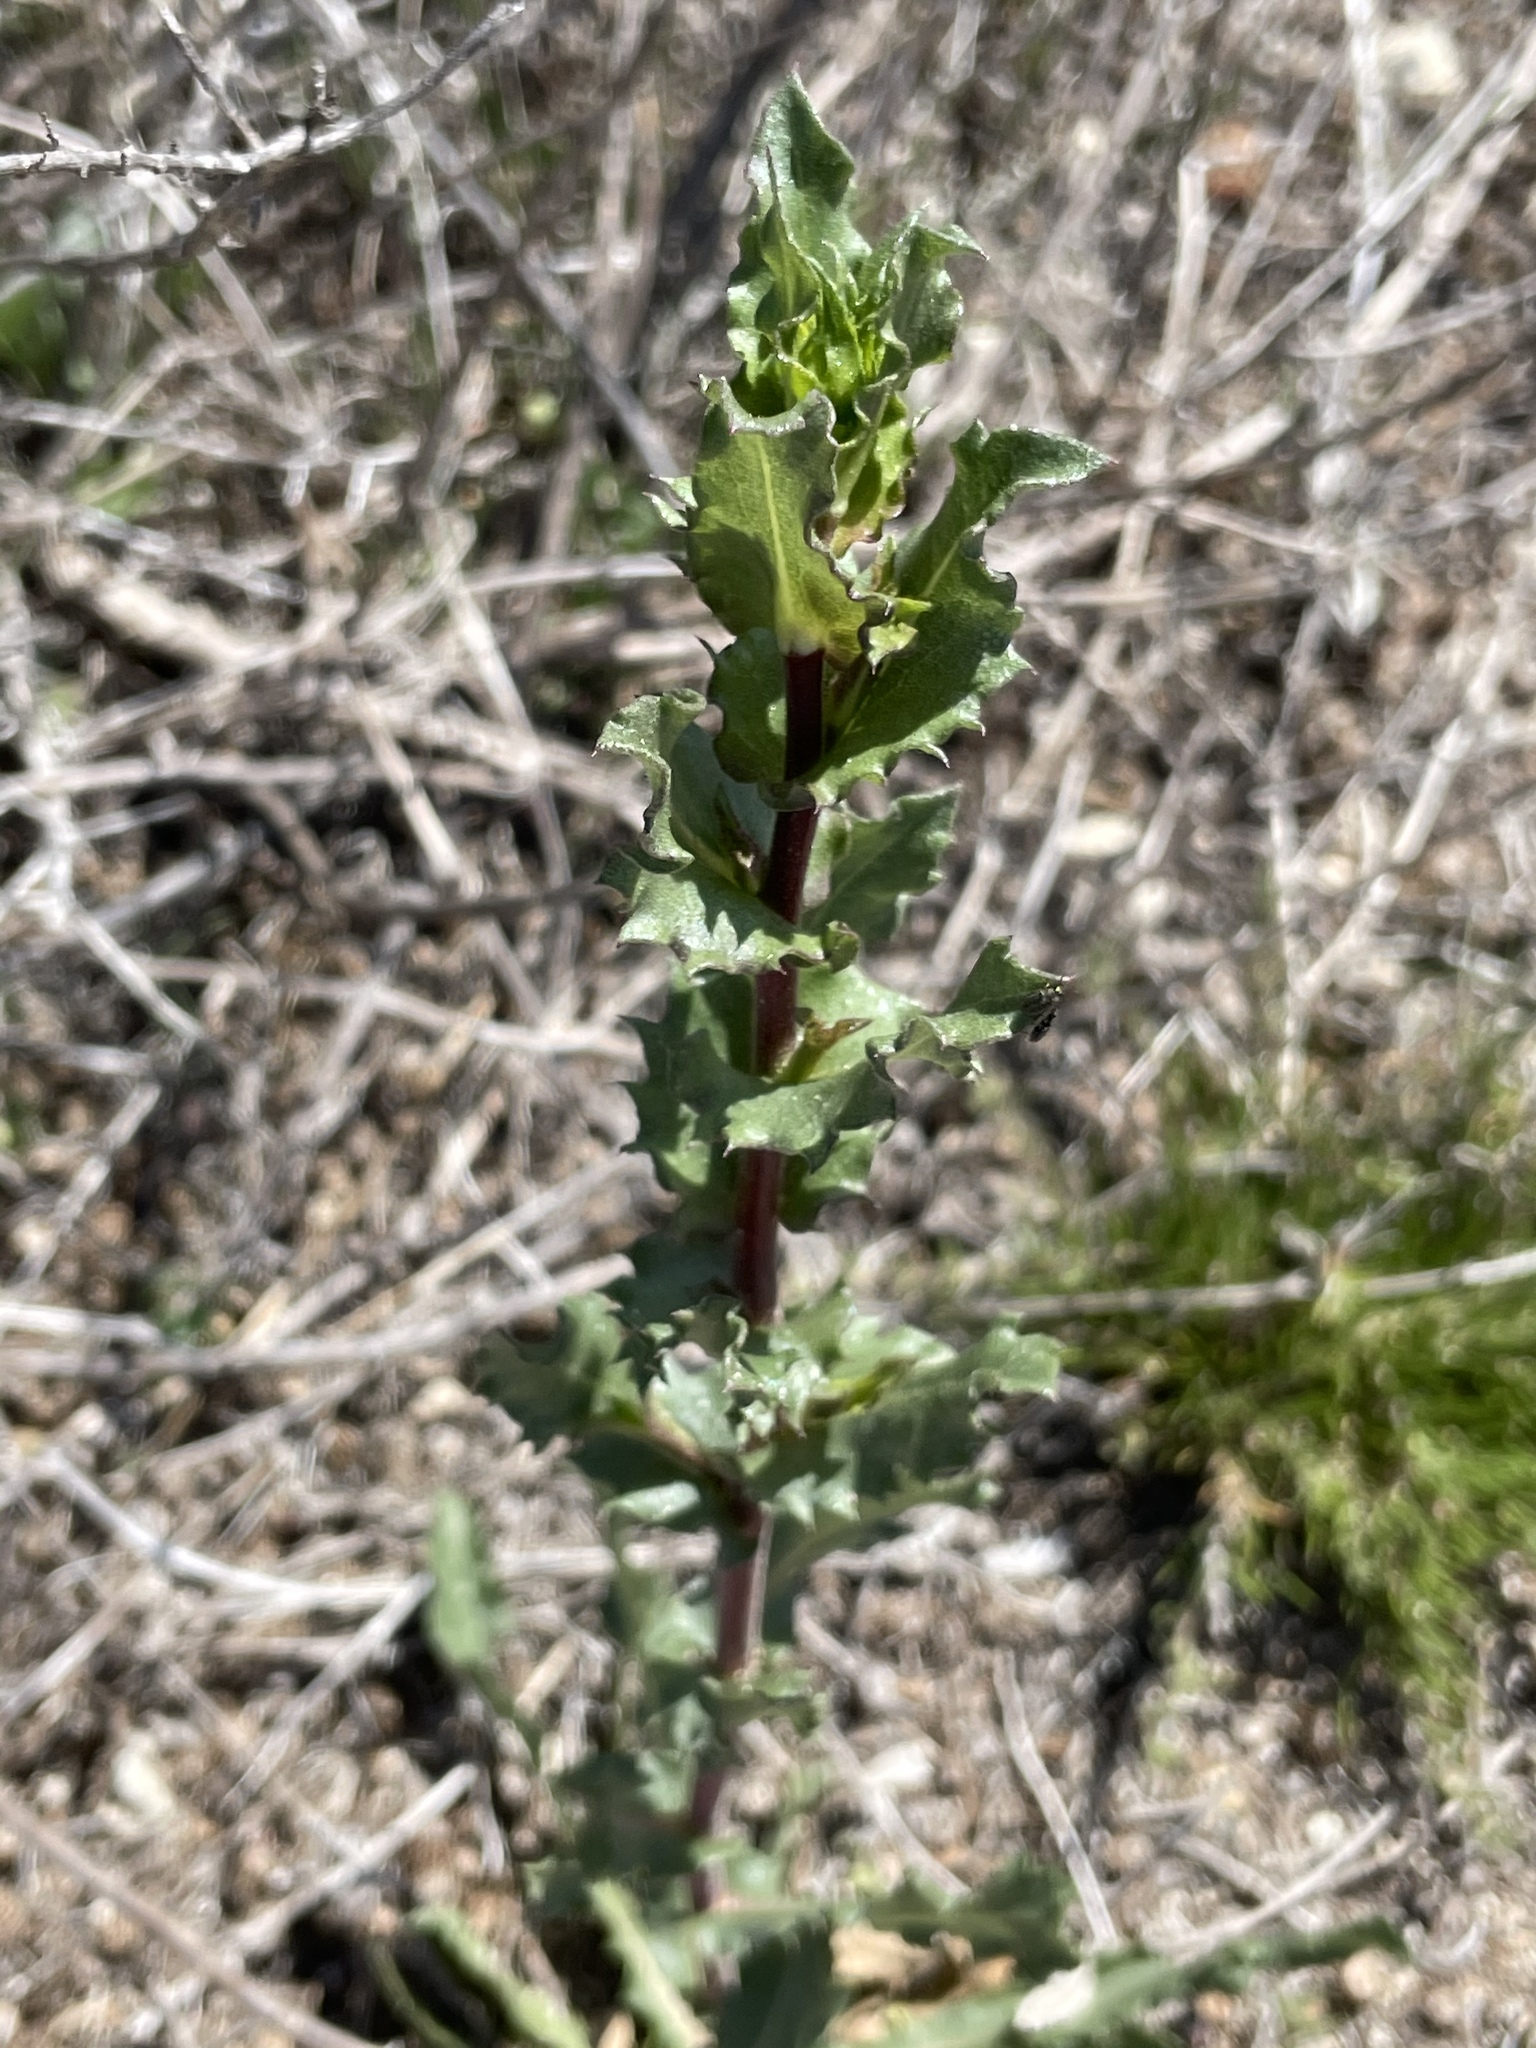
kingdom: Plantae
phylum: Tracheophyta
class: Magnoliopsida
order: Asterales
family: Asteraceae
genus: Grindelia
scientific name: Grindelia hirsutula
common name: Hairy gumweed
